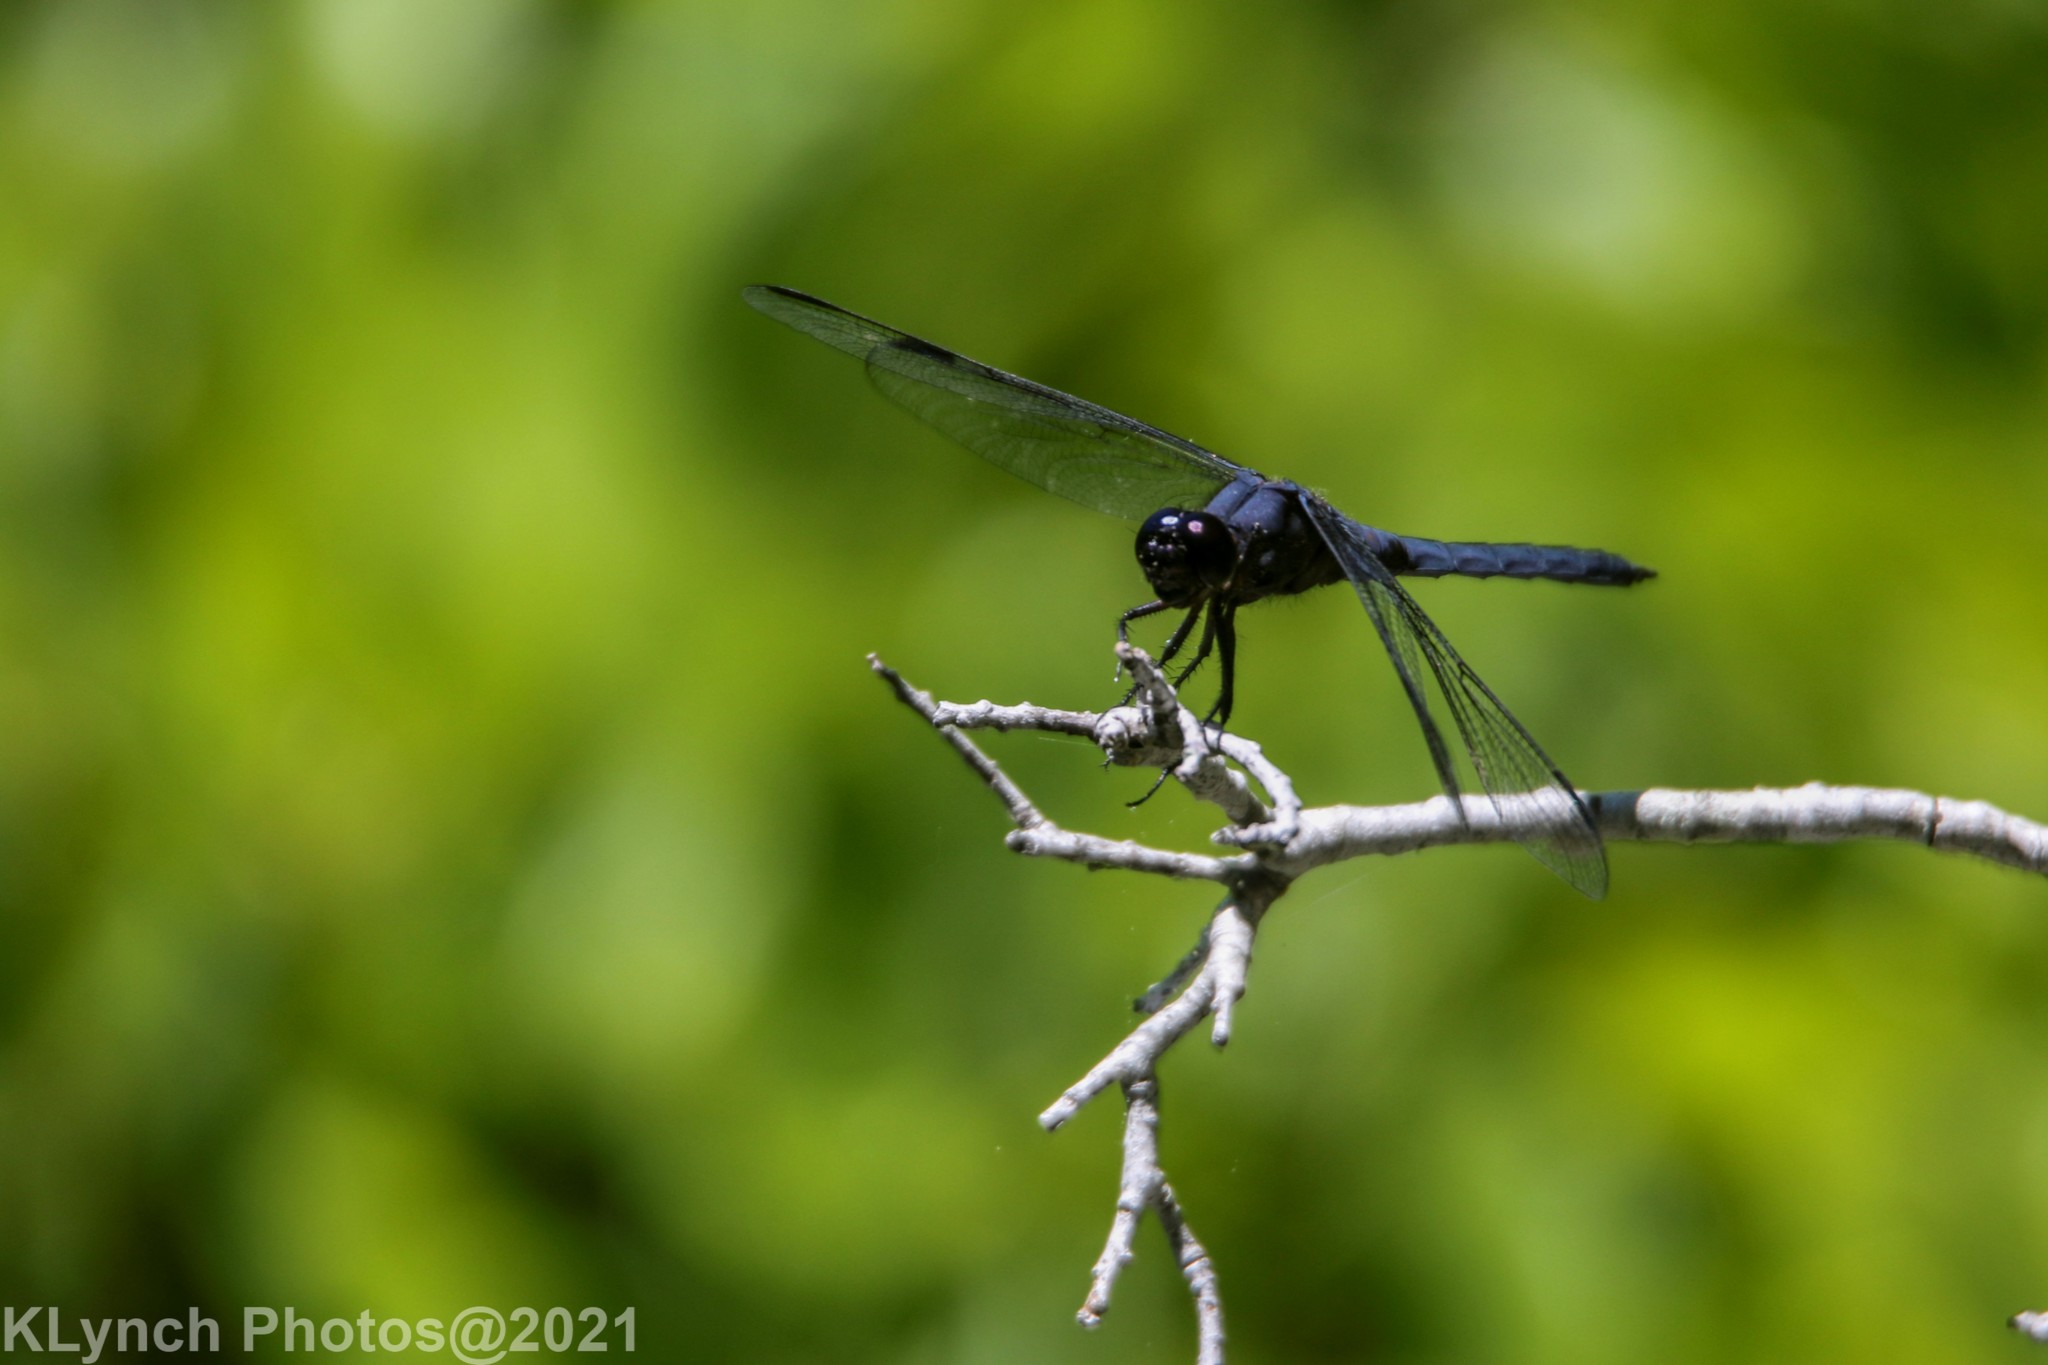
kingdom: Animalia
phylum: Arthropoda
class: Insecta
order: Odonata
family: Libellulidae
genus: Libellula
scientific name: Libellula incesta
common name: Slaty skimmer
